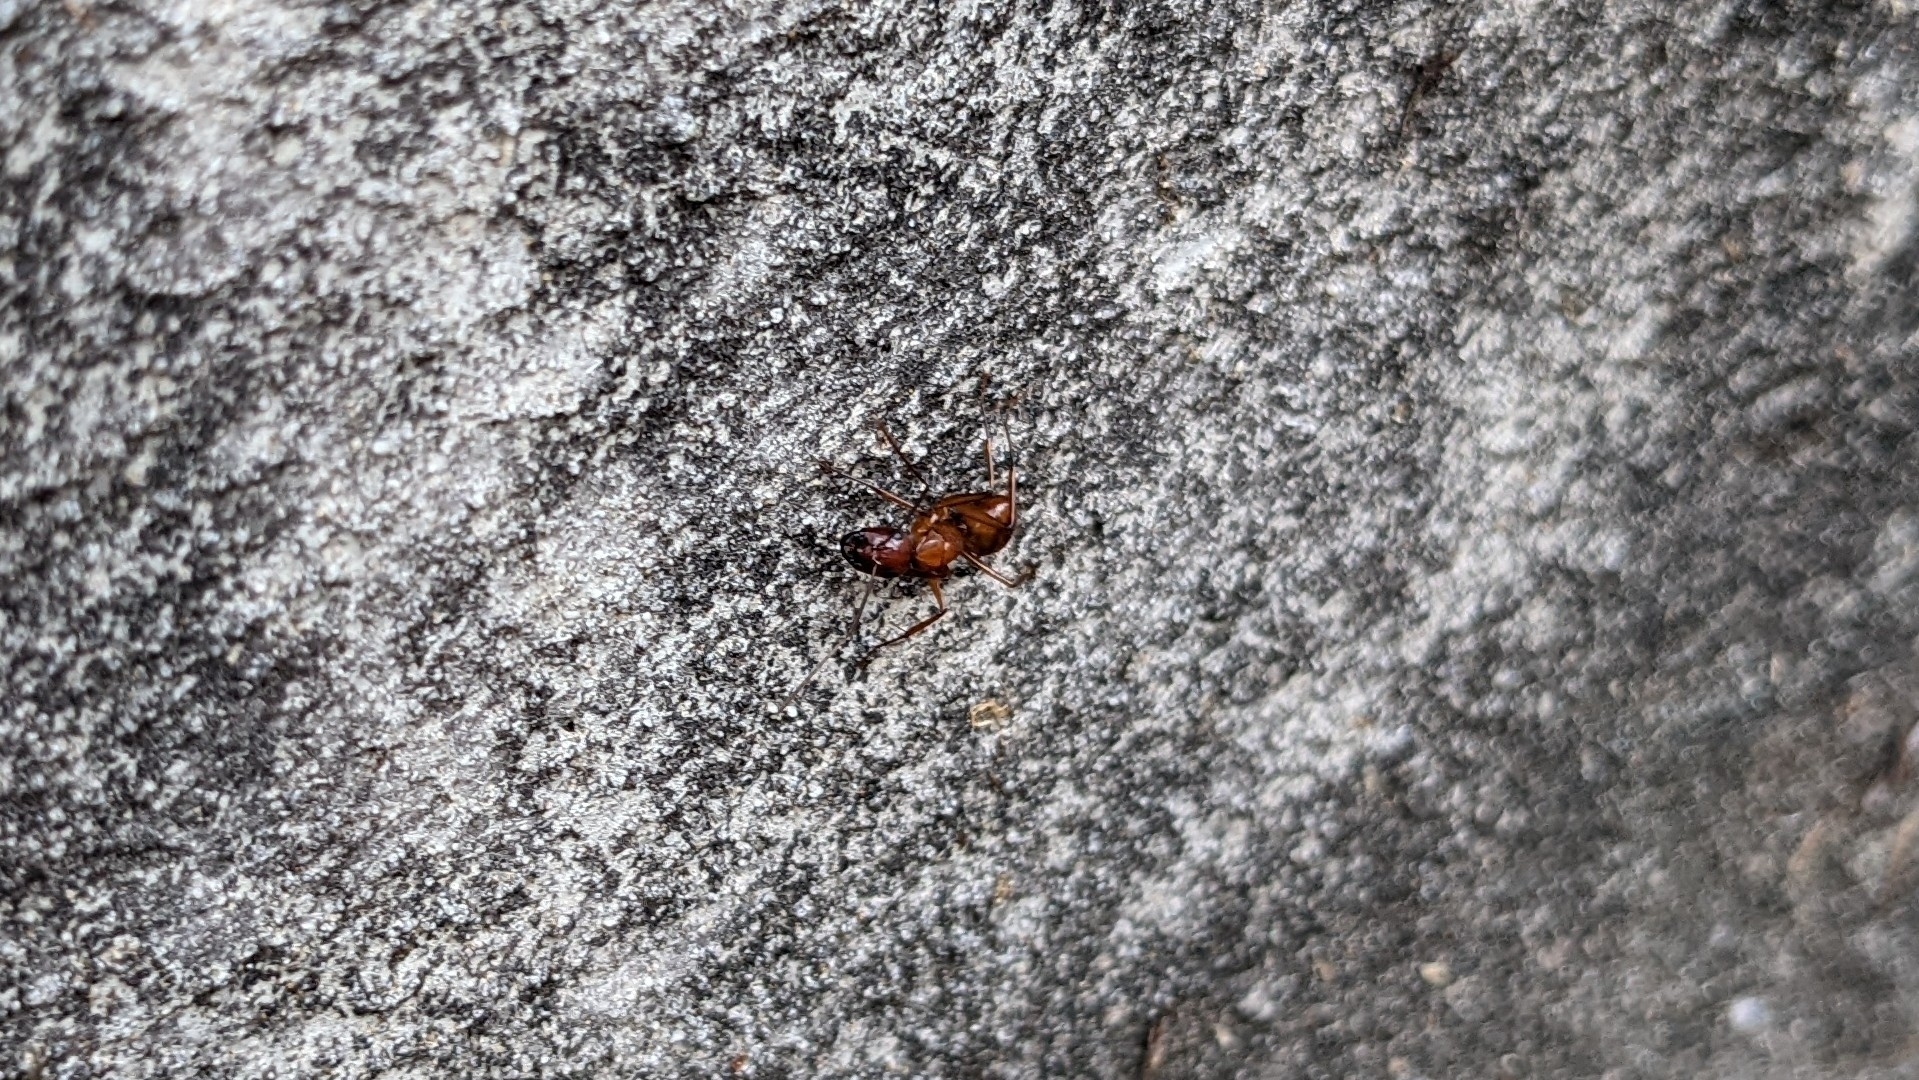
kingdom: Animalia
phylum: Arthropoda
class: Insecta
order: Hymenoptera
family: Formicidae
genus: Camponotus
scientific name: Camponotus castaneus
